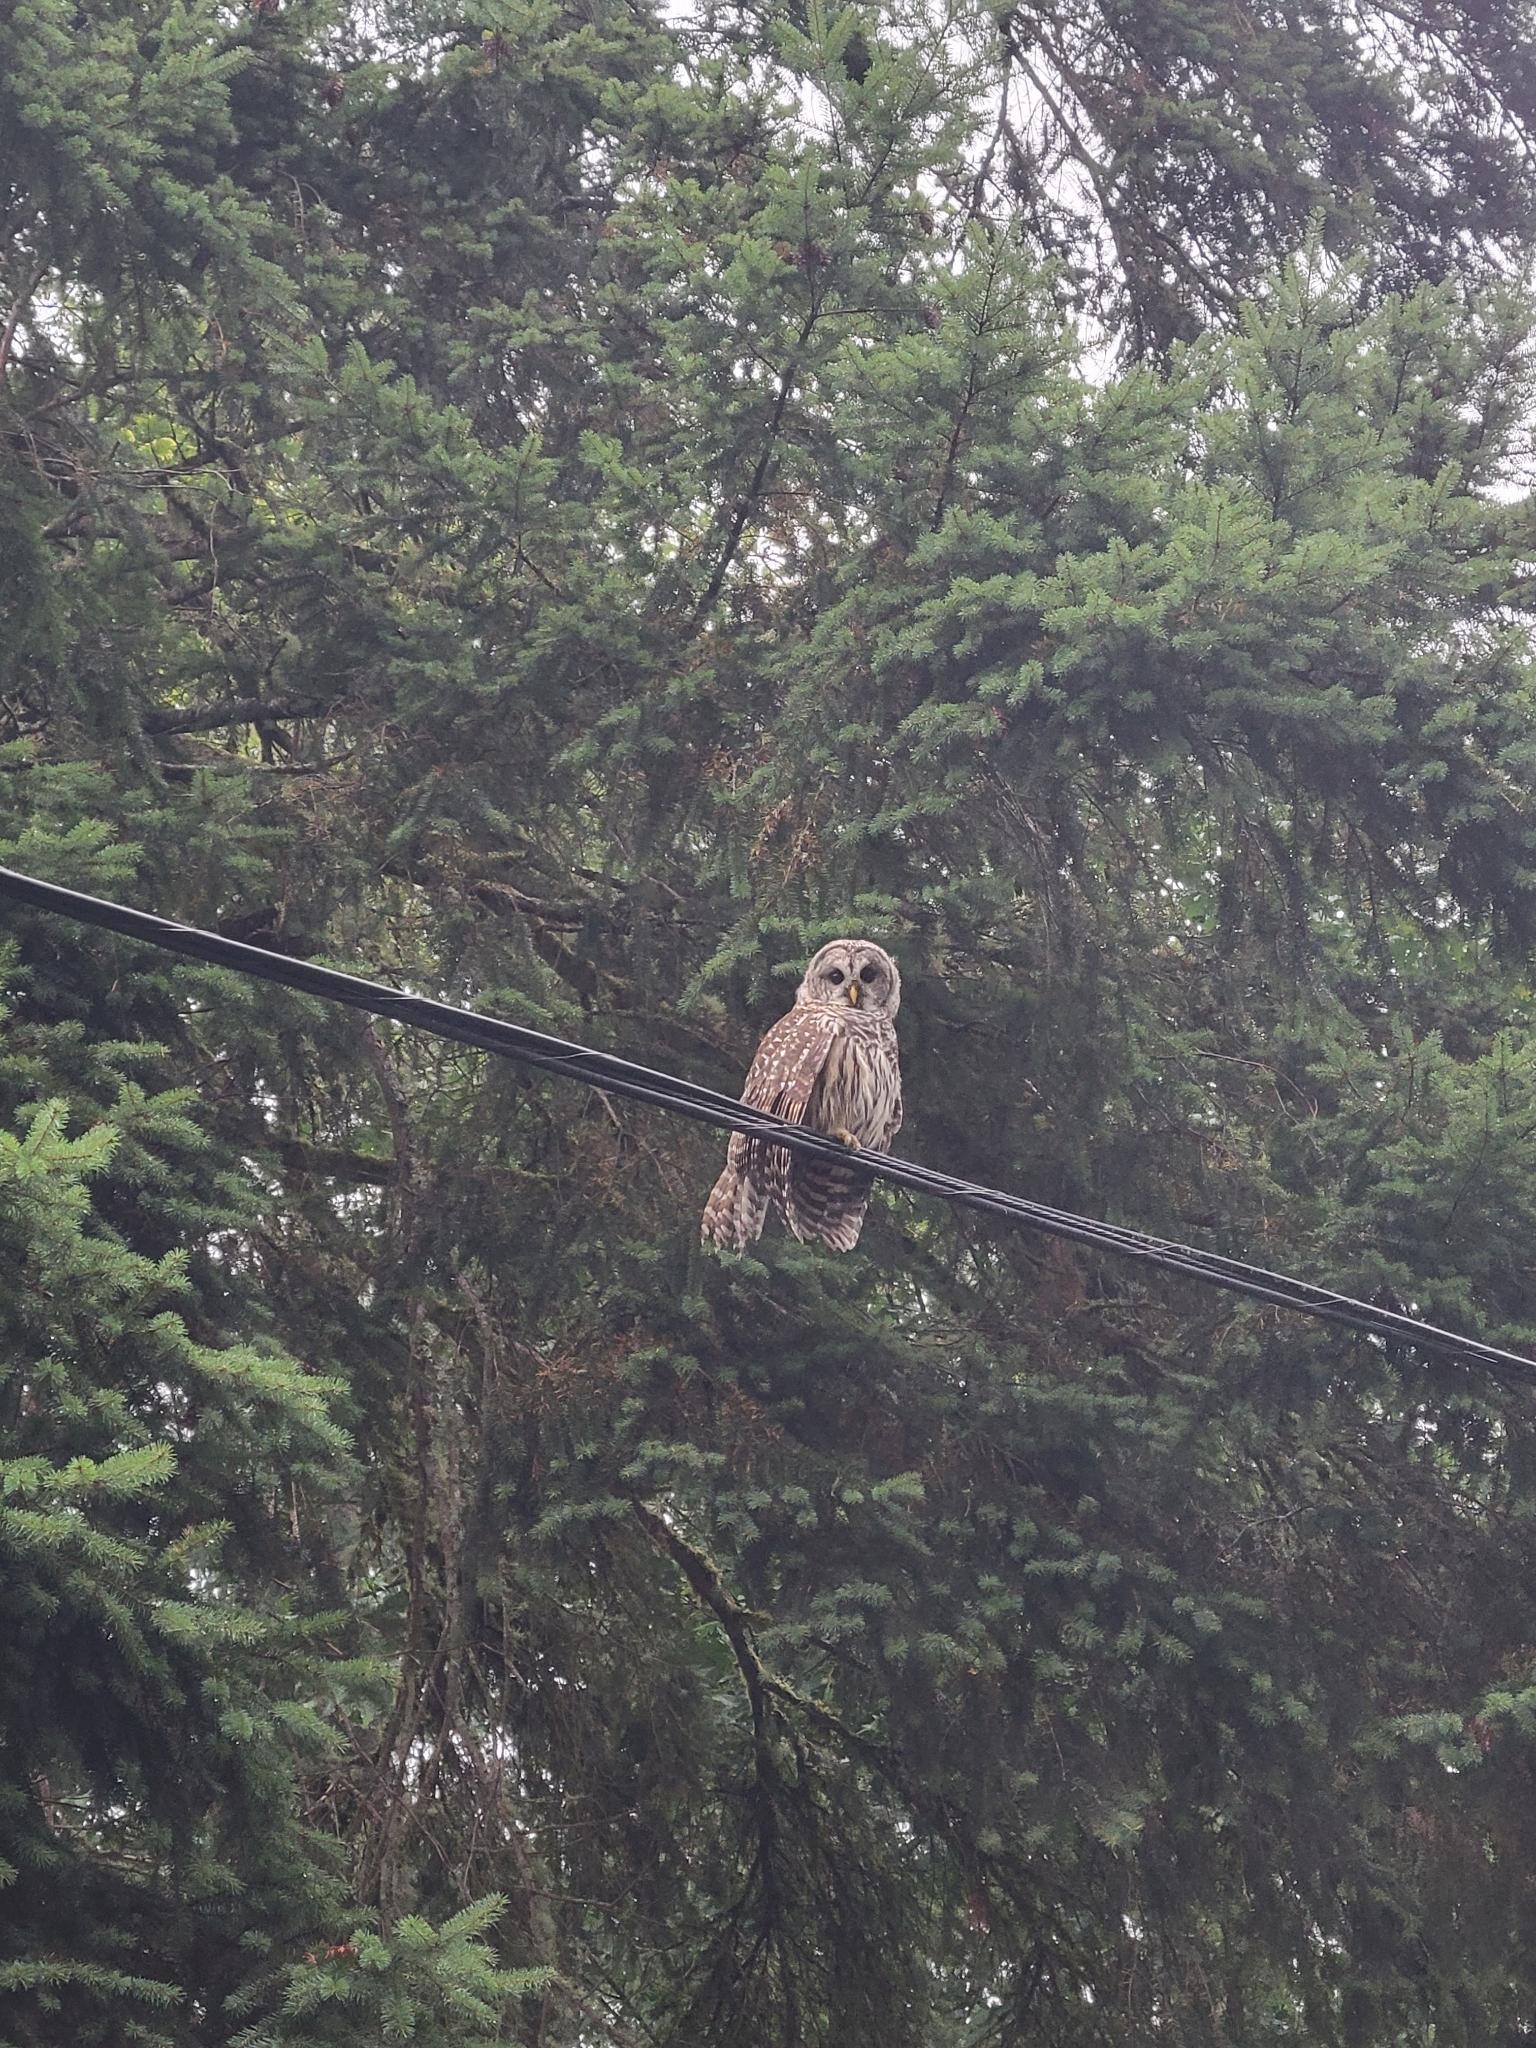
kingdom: Animalia
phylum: Chordata
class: Aves
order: Strigiformes
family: Strigidae
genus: Strix
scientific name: Strix varia
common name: Barred owl
